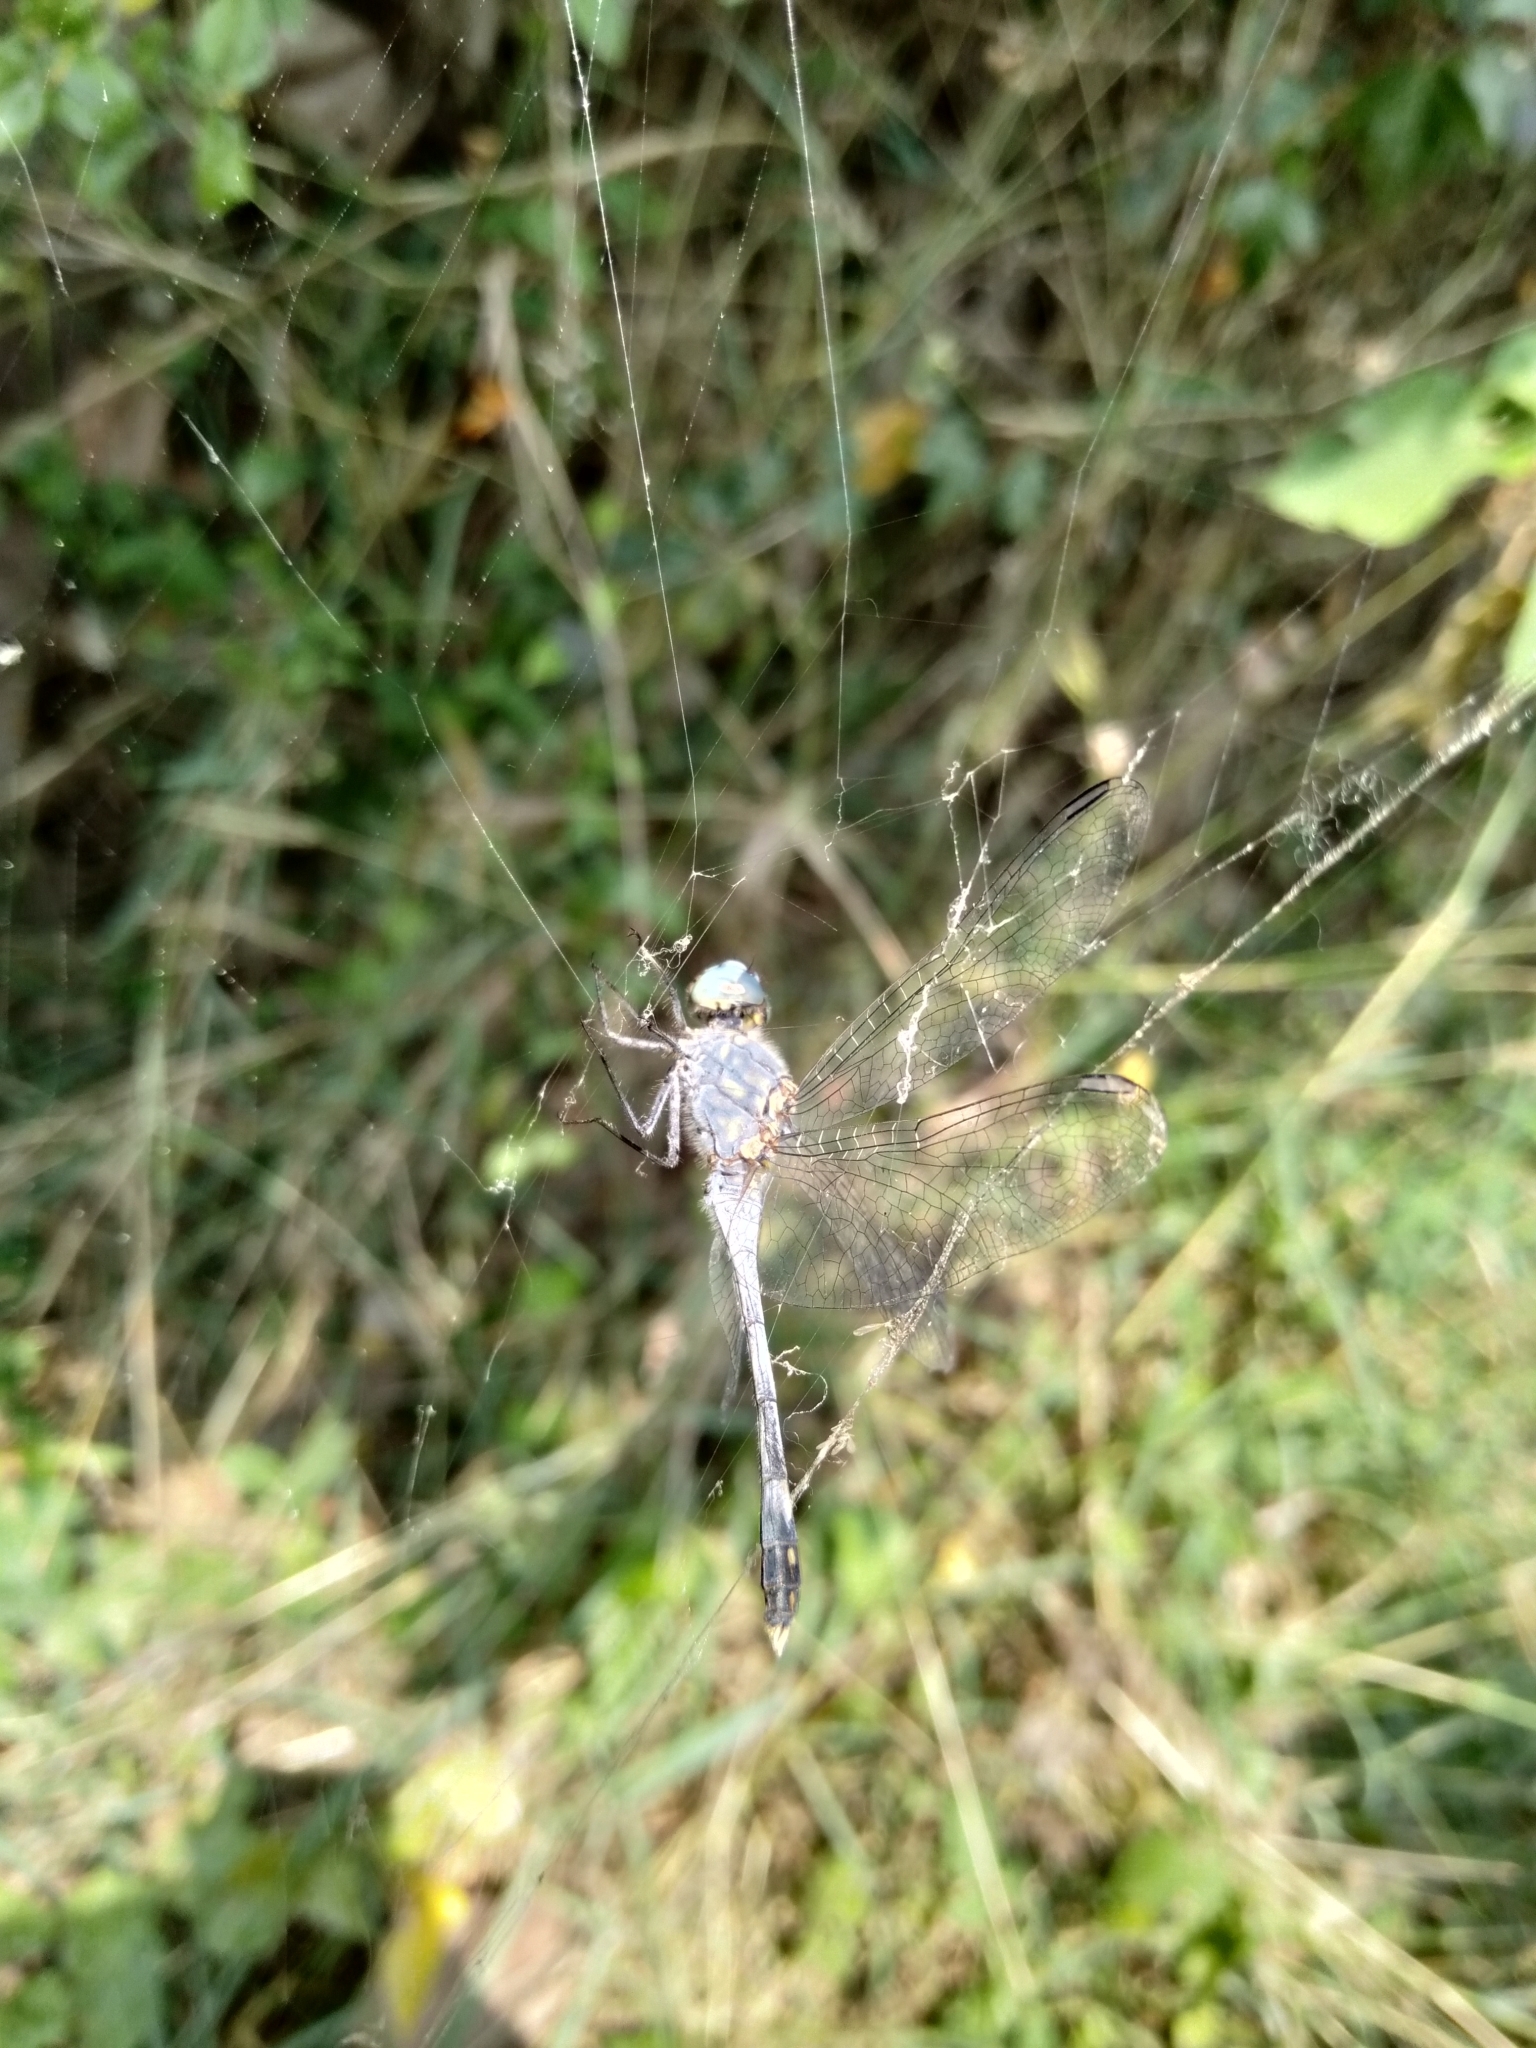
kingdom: Animalia
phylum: Arthropoda
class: Insecta
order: Odonata
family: Libellulidae
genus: Diplacodes
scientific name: Diplacodes trivialis
